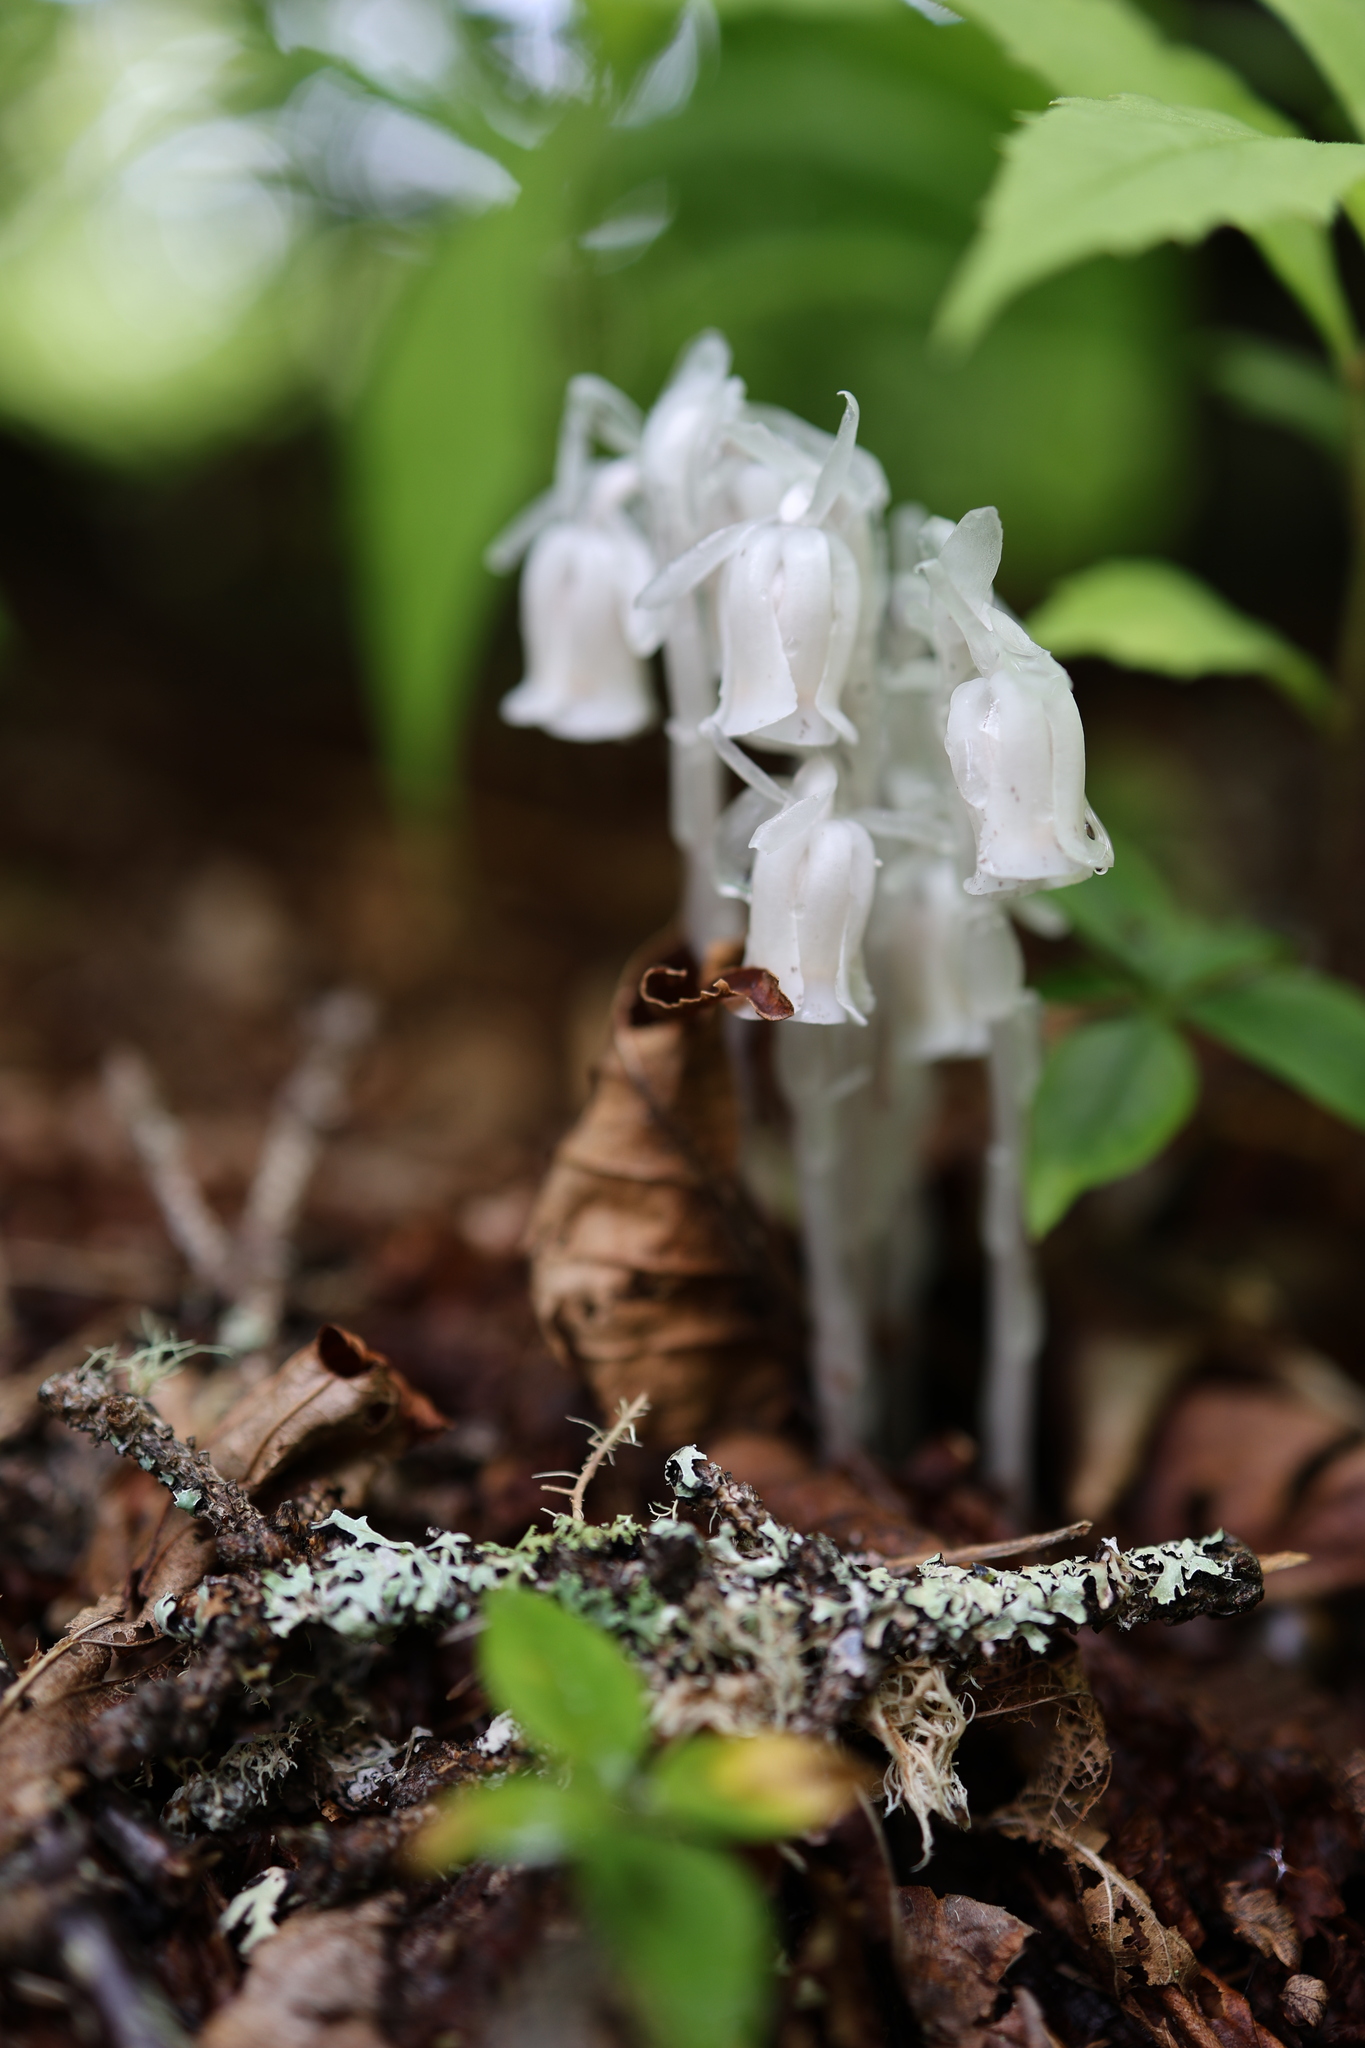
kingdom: Plantae
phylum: Tracheophyta
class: Magnoliopsida
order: Ericales
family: Ericaceae
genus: Monotropa
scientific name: Monotropa uniflora
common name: Convulsion root
